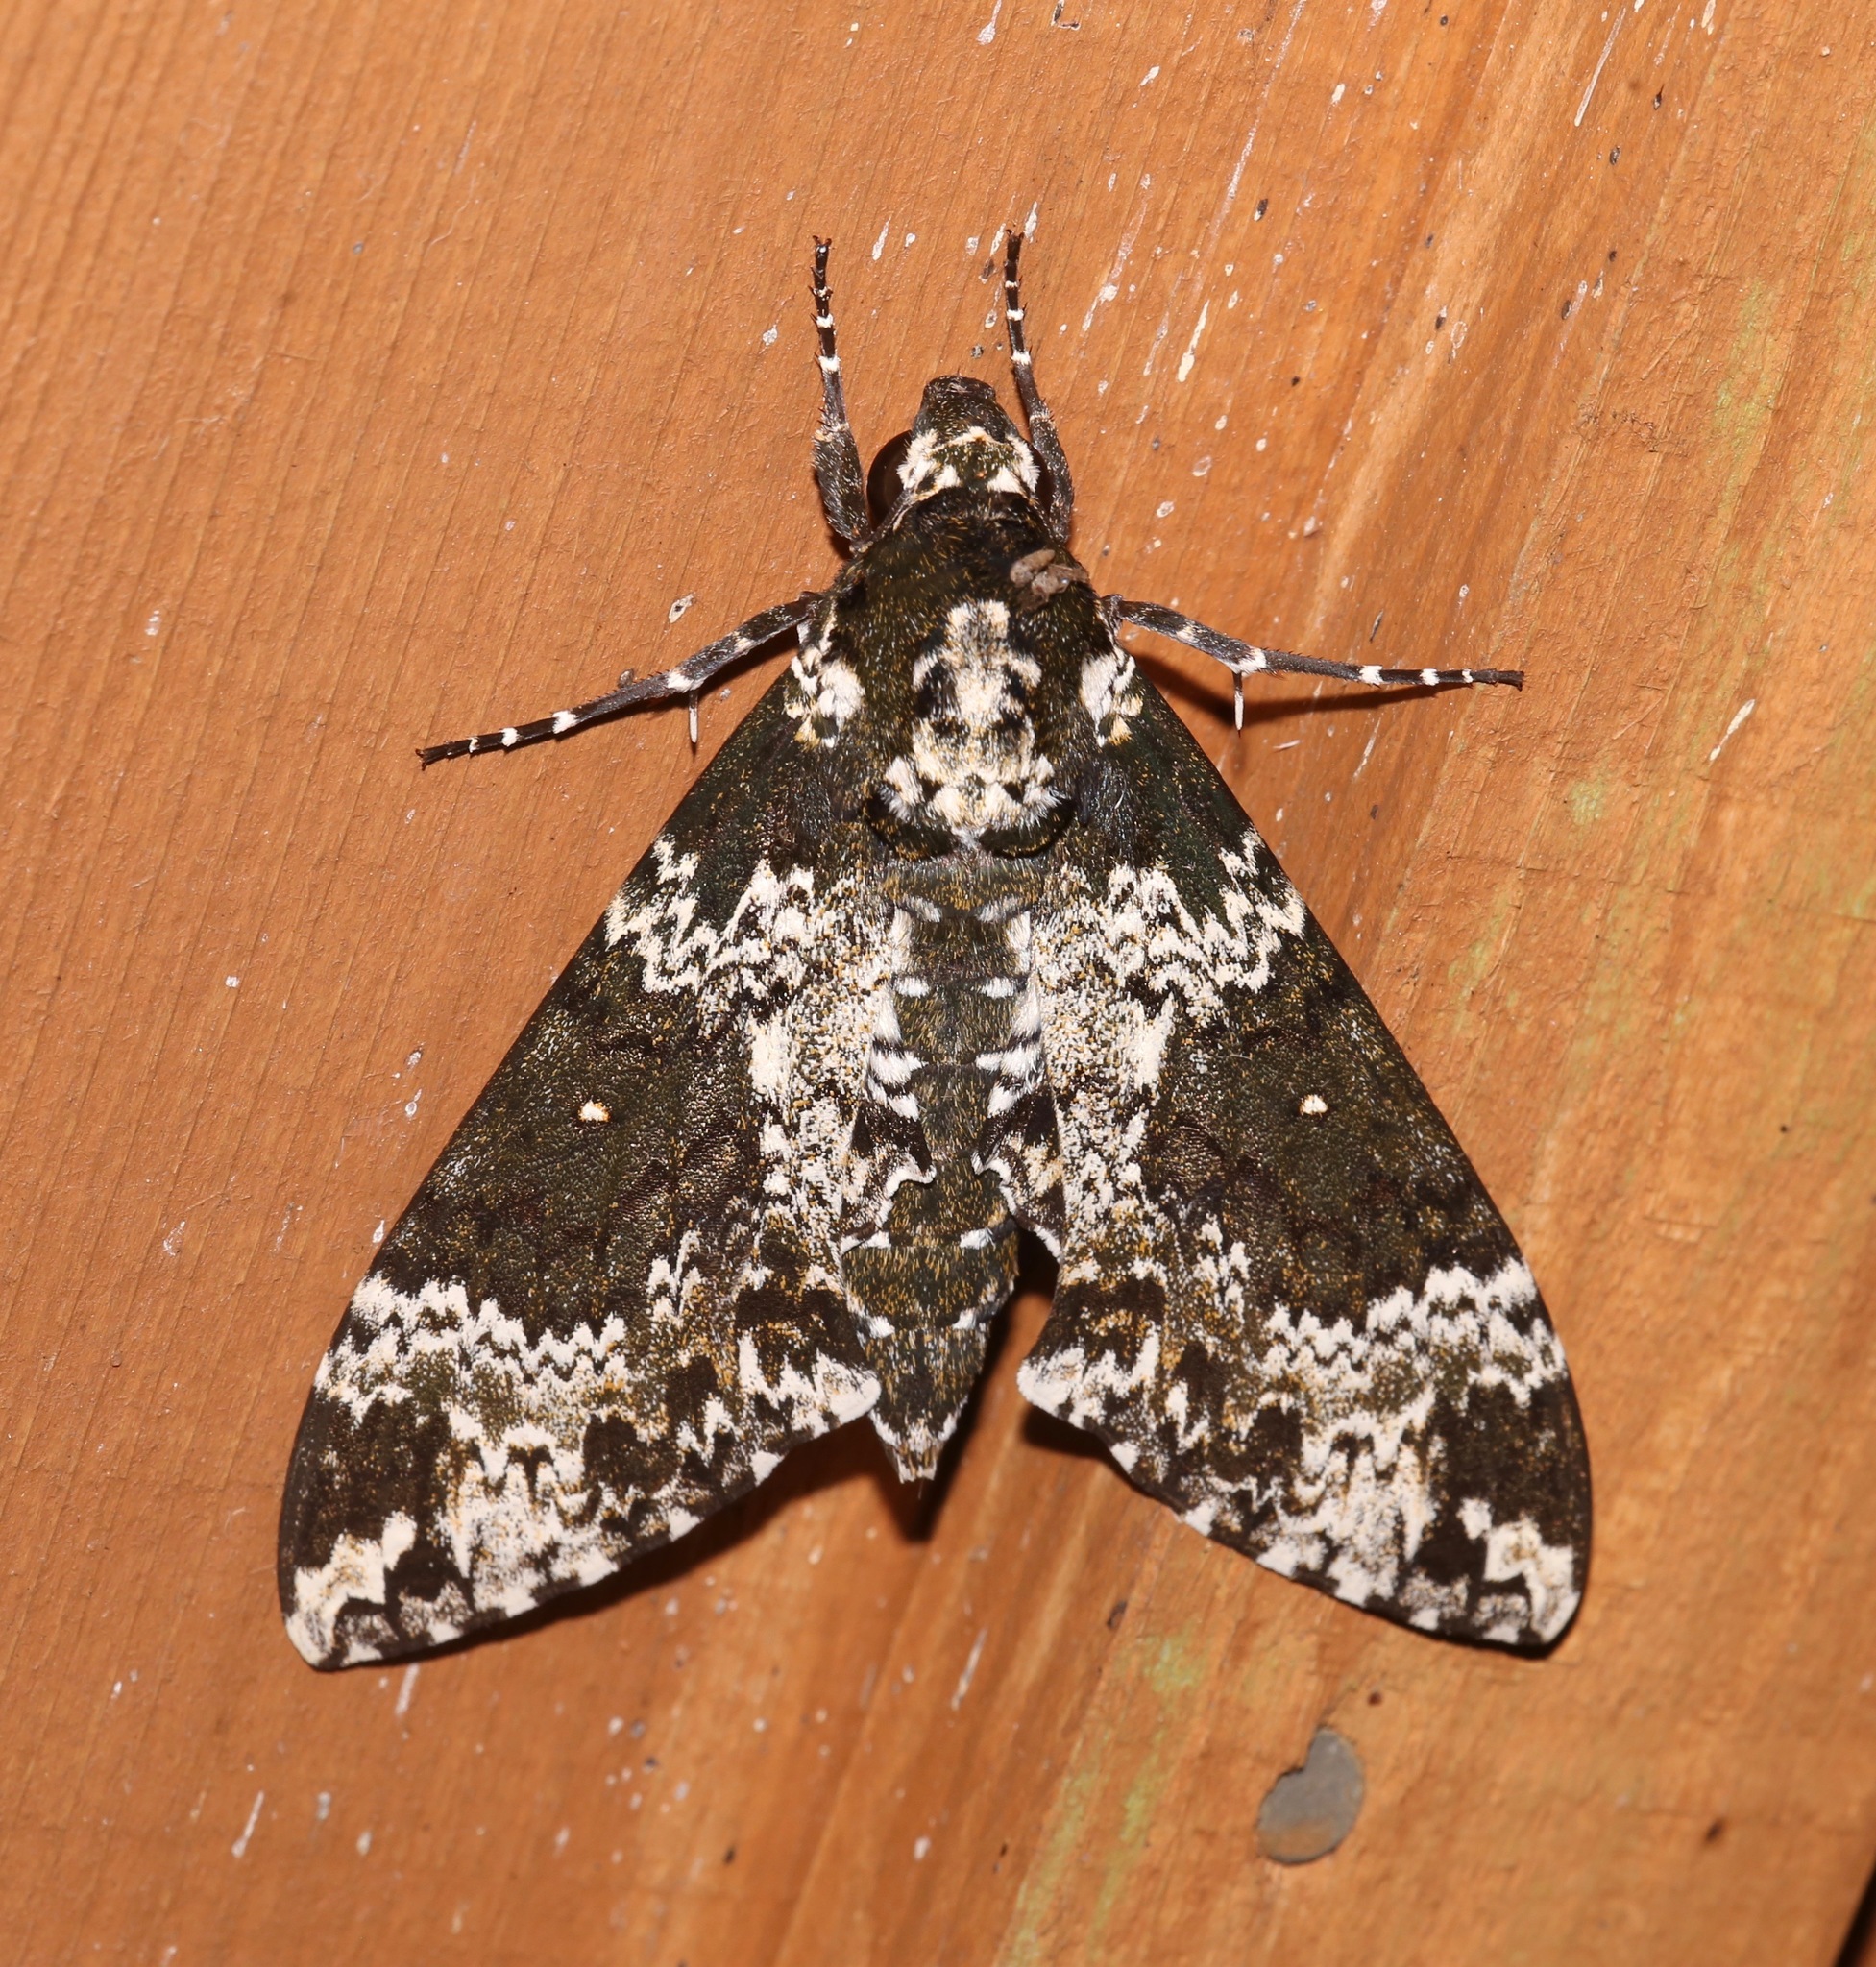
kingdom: Animalia
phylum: Arthropoda
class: Insecta
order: Lepidoptera
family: Sphingidae
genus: Manduca
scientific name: Manduca rustica
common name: Rustic sphinx
